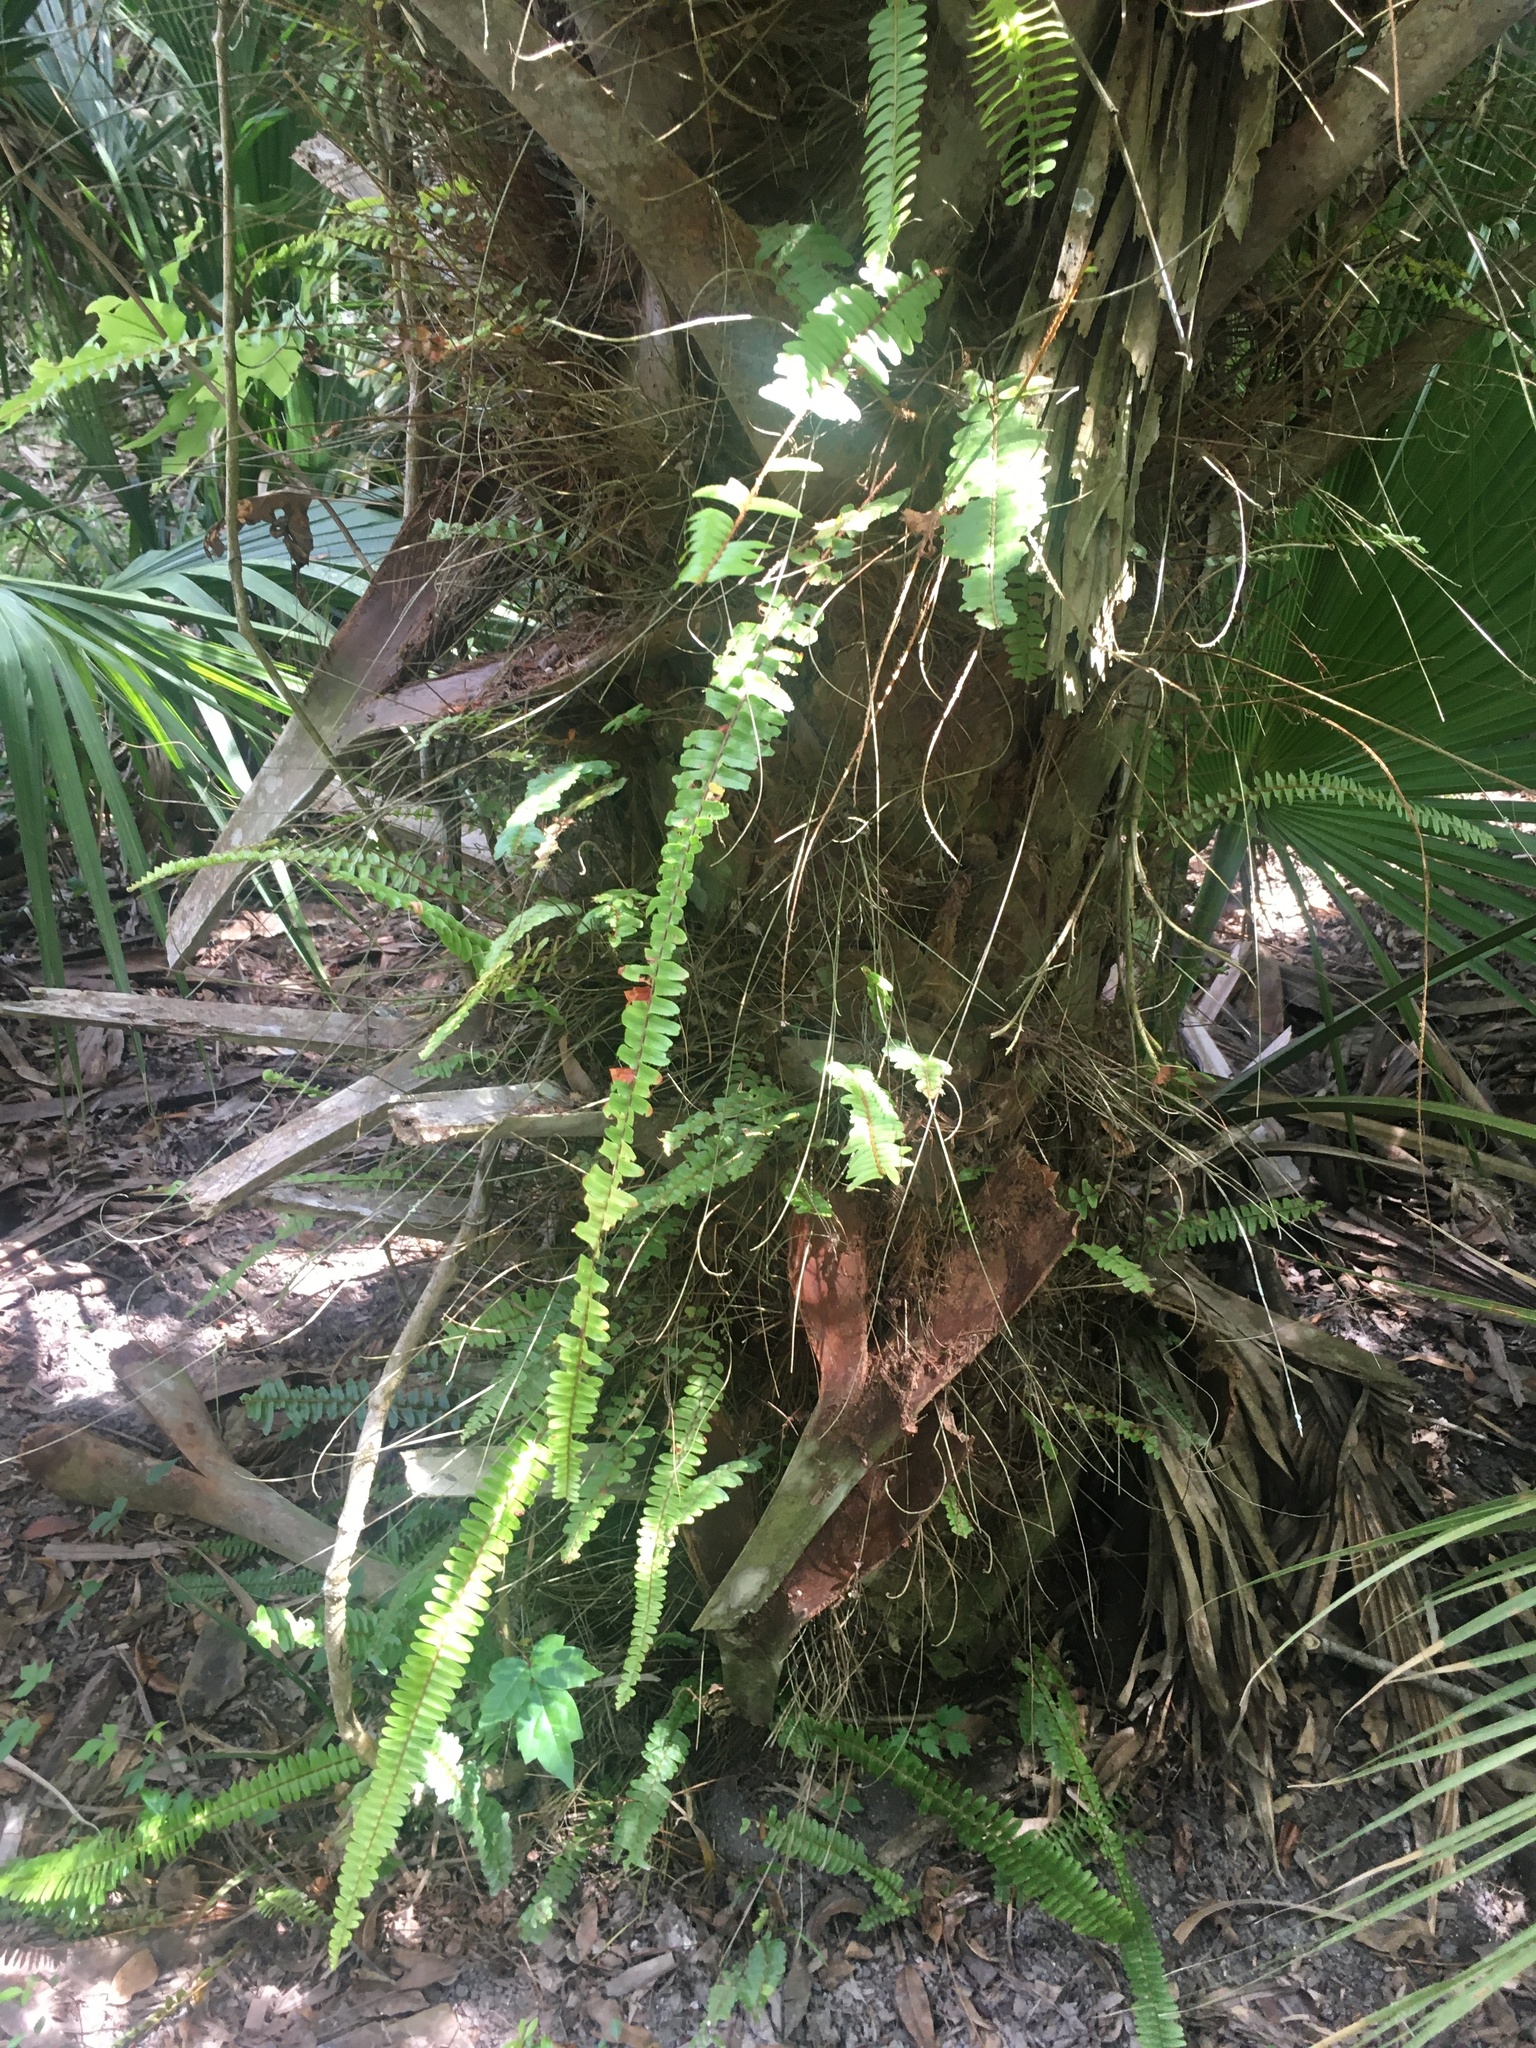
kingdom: Plantae
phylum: Tracheophyta
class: Polypodiopsida
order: Polypodiales
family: Nephrolepidaceae
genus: Nephrolepis
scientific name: Nephrolepis cordifolia
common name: Narrow swordfern
